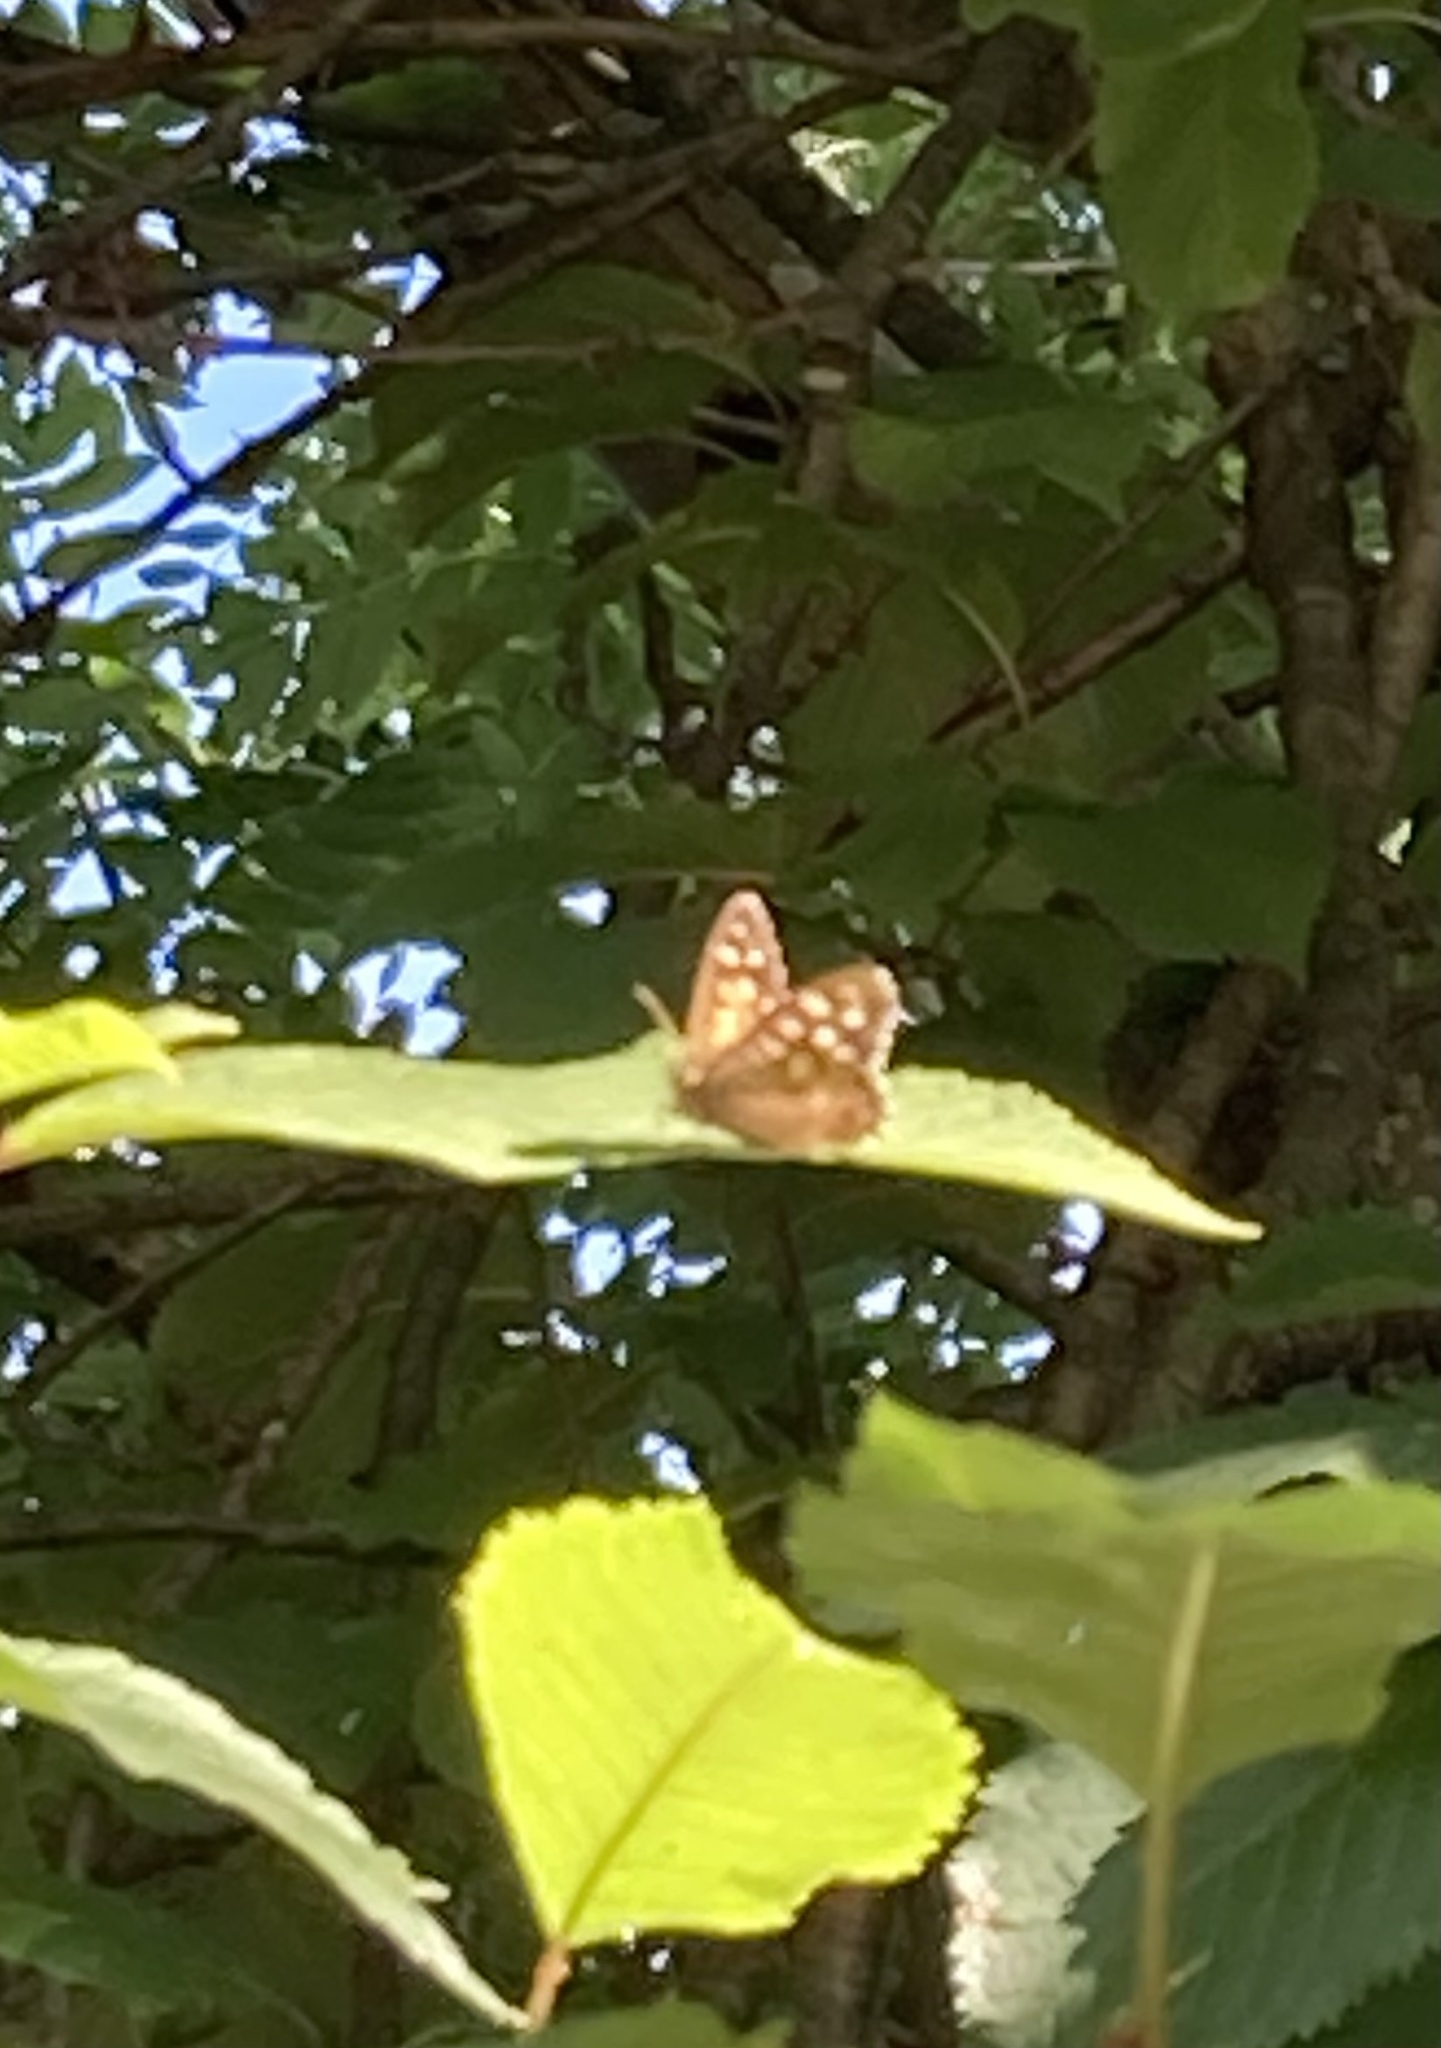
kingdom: Animalia
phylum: Arthropoda
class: Insecta
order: Lepidoptera
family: Nymphalidae
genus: Pararge
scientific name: Pararge aegeria
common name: Speckled wood
